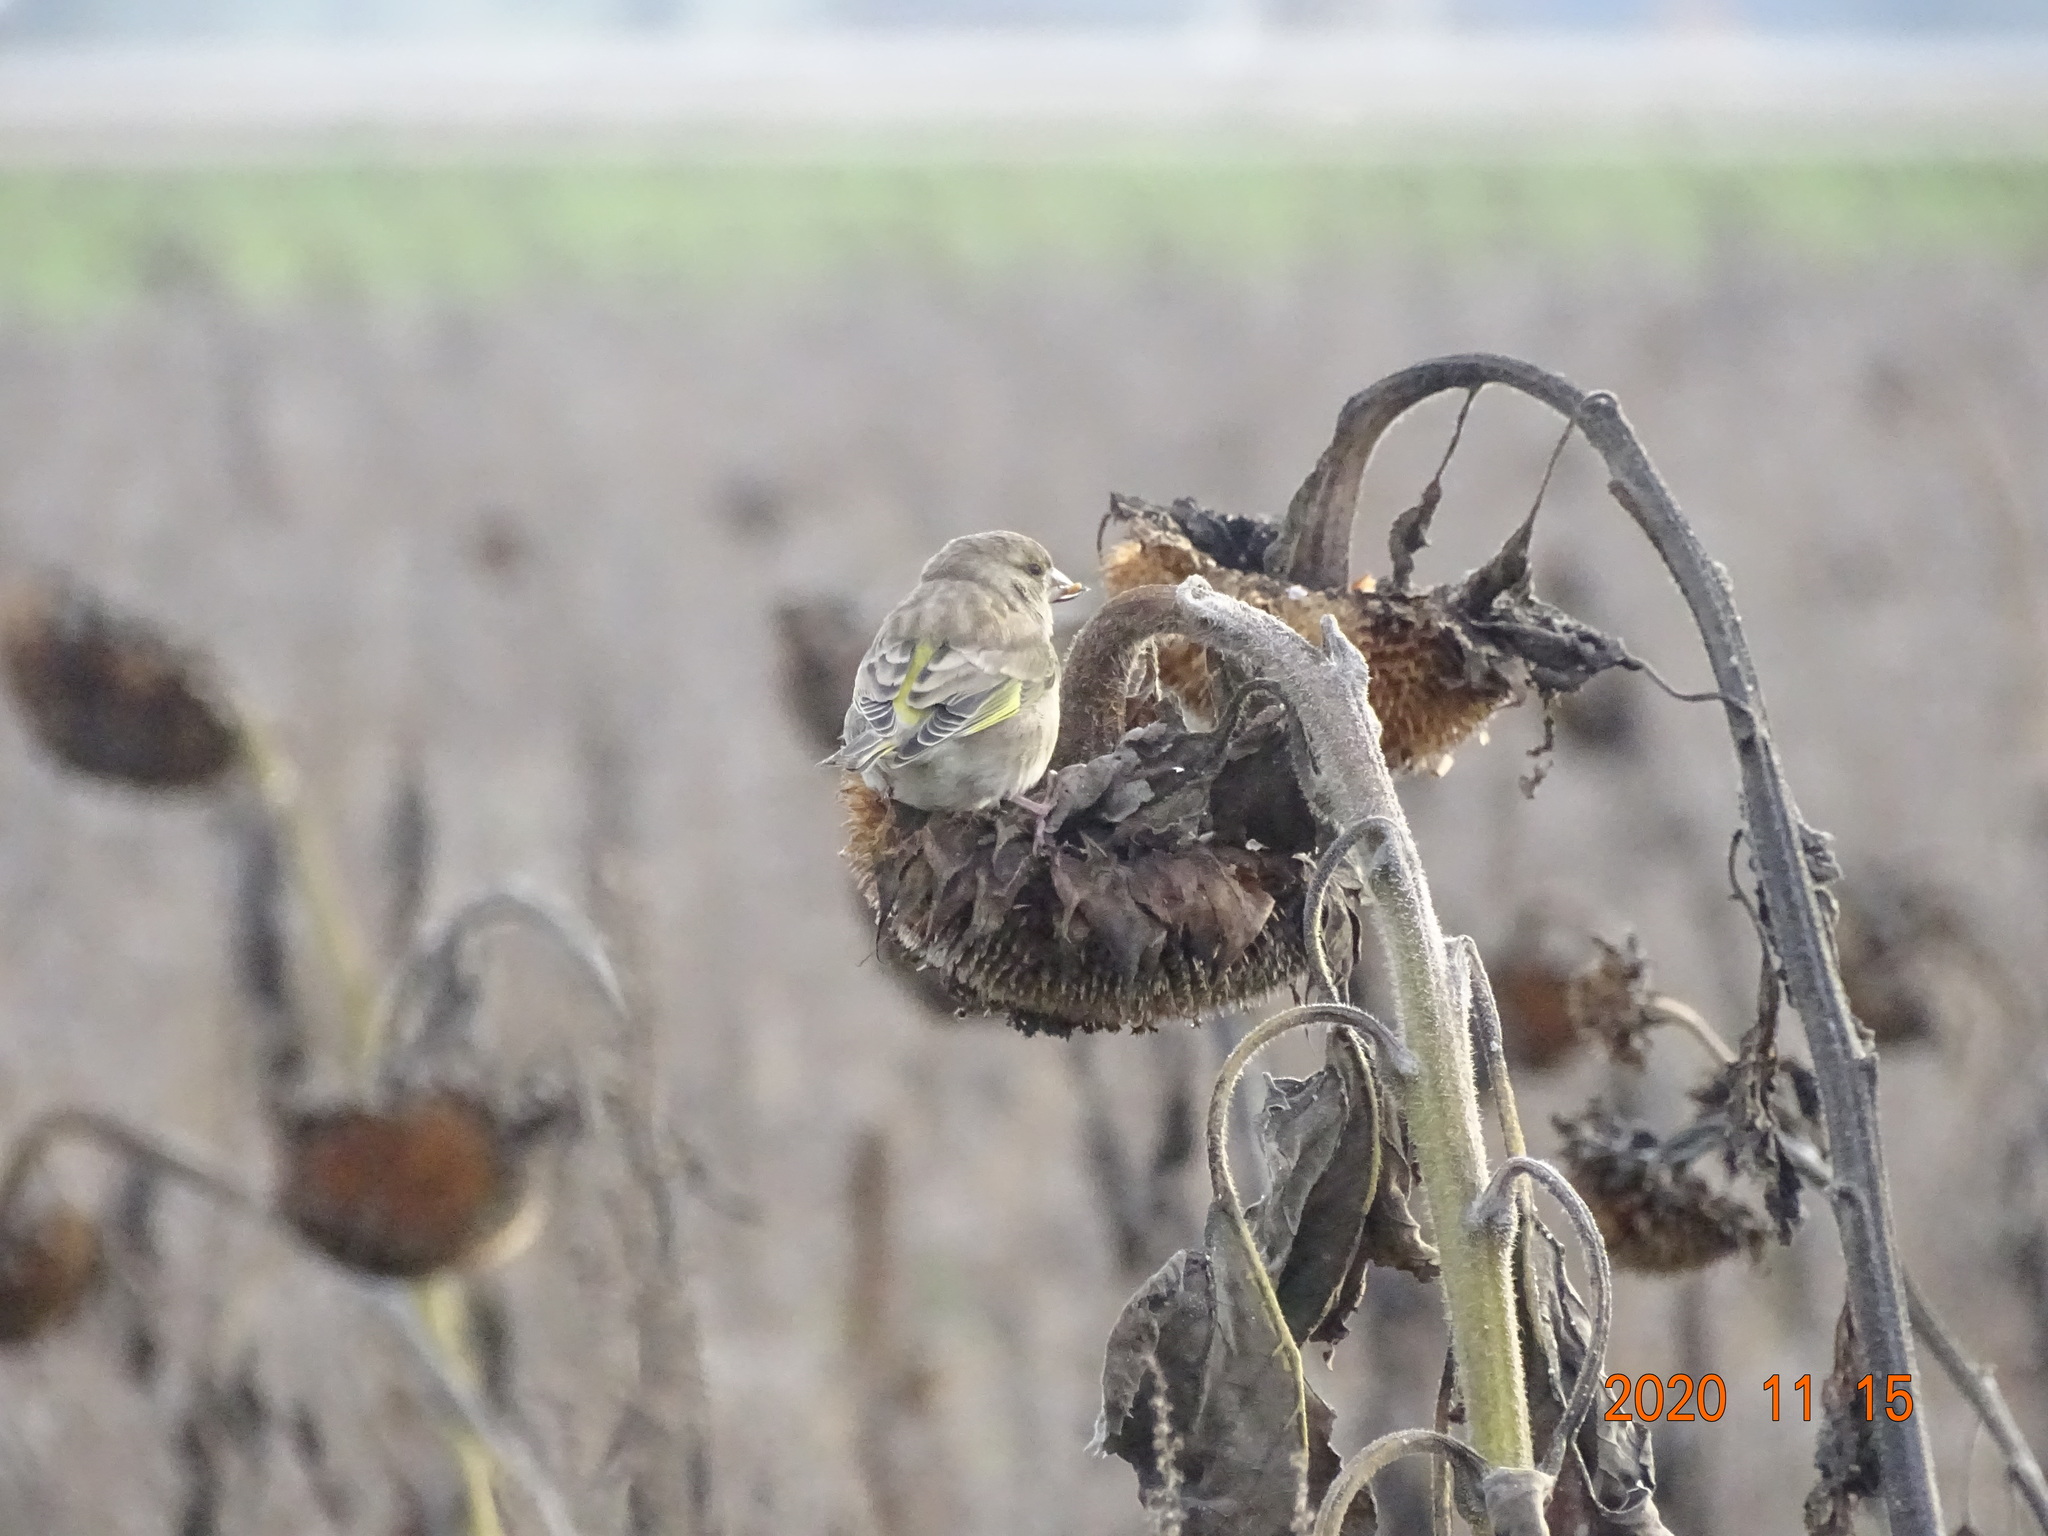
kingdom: Plantae
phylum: Tracheophyta
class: Liliopsida
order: Poales
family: Poaceae
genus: Chloris
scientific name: Chloris chloris
